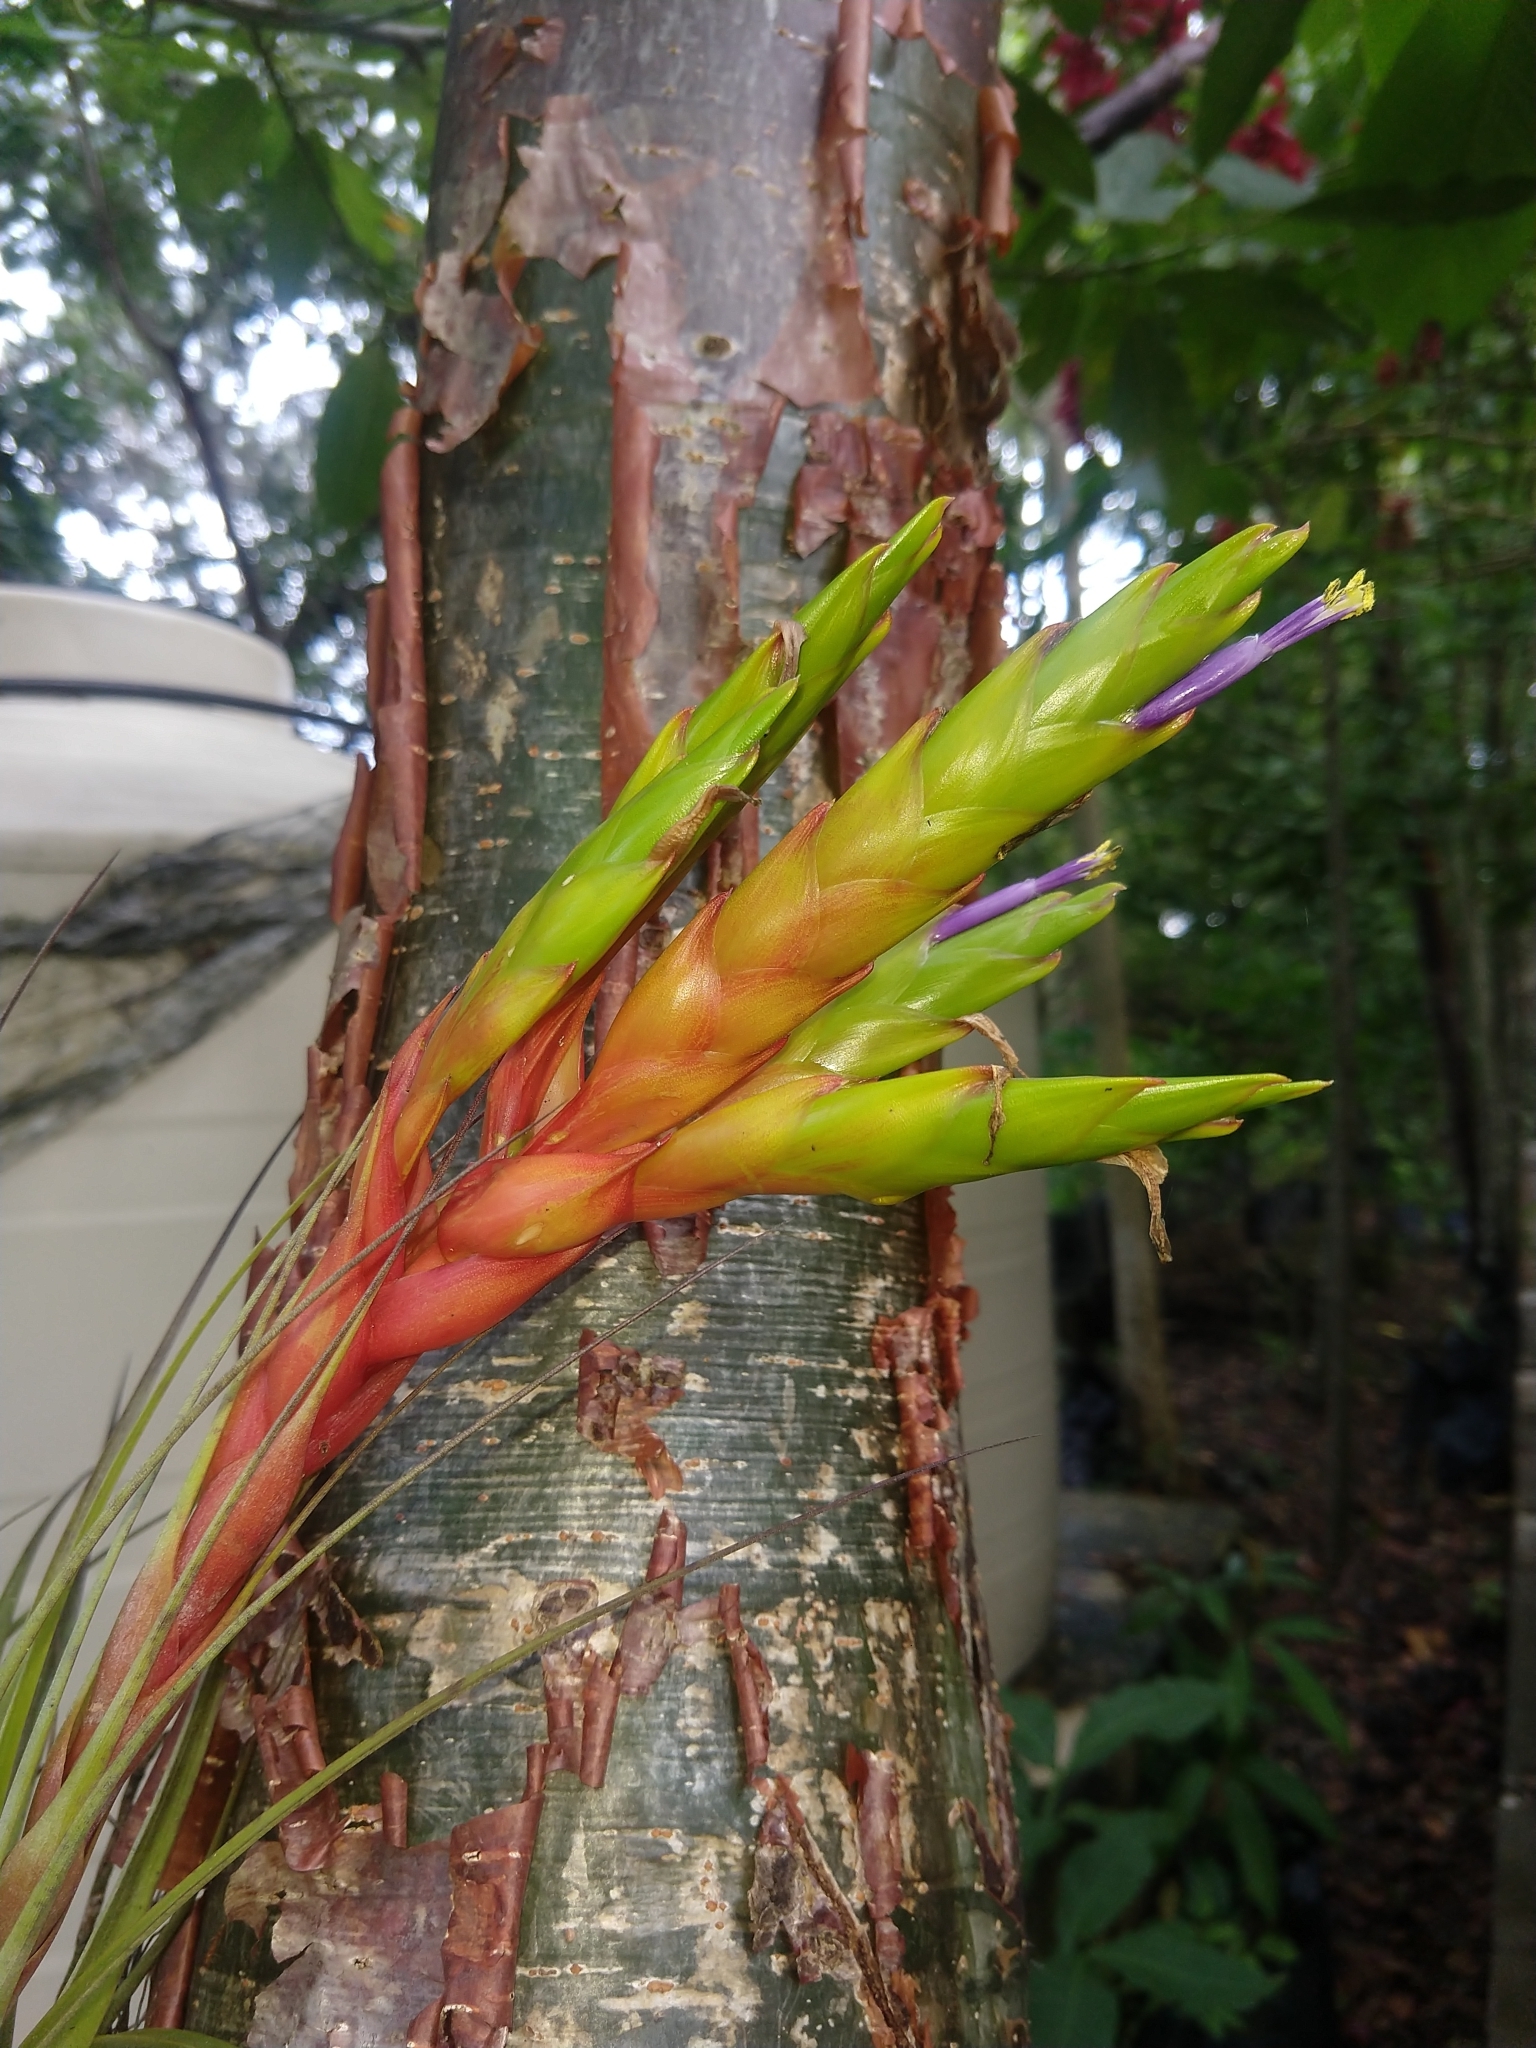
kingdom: Plantae
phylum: Tracheophyta
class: Liliopsida
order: Poales
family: Bromeliaceae
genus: Tillandsia
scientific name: Tillandsia fasciculata
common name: Giant airplant
